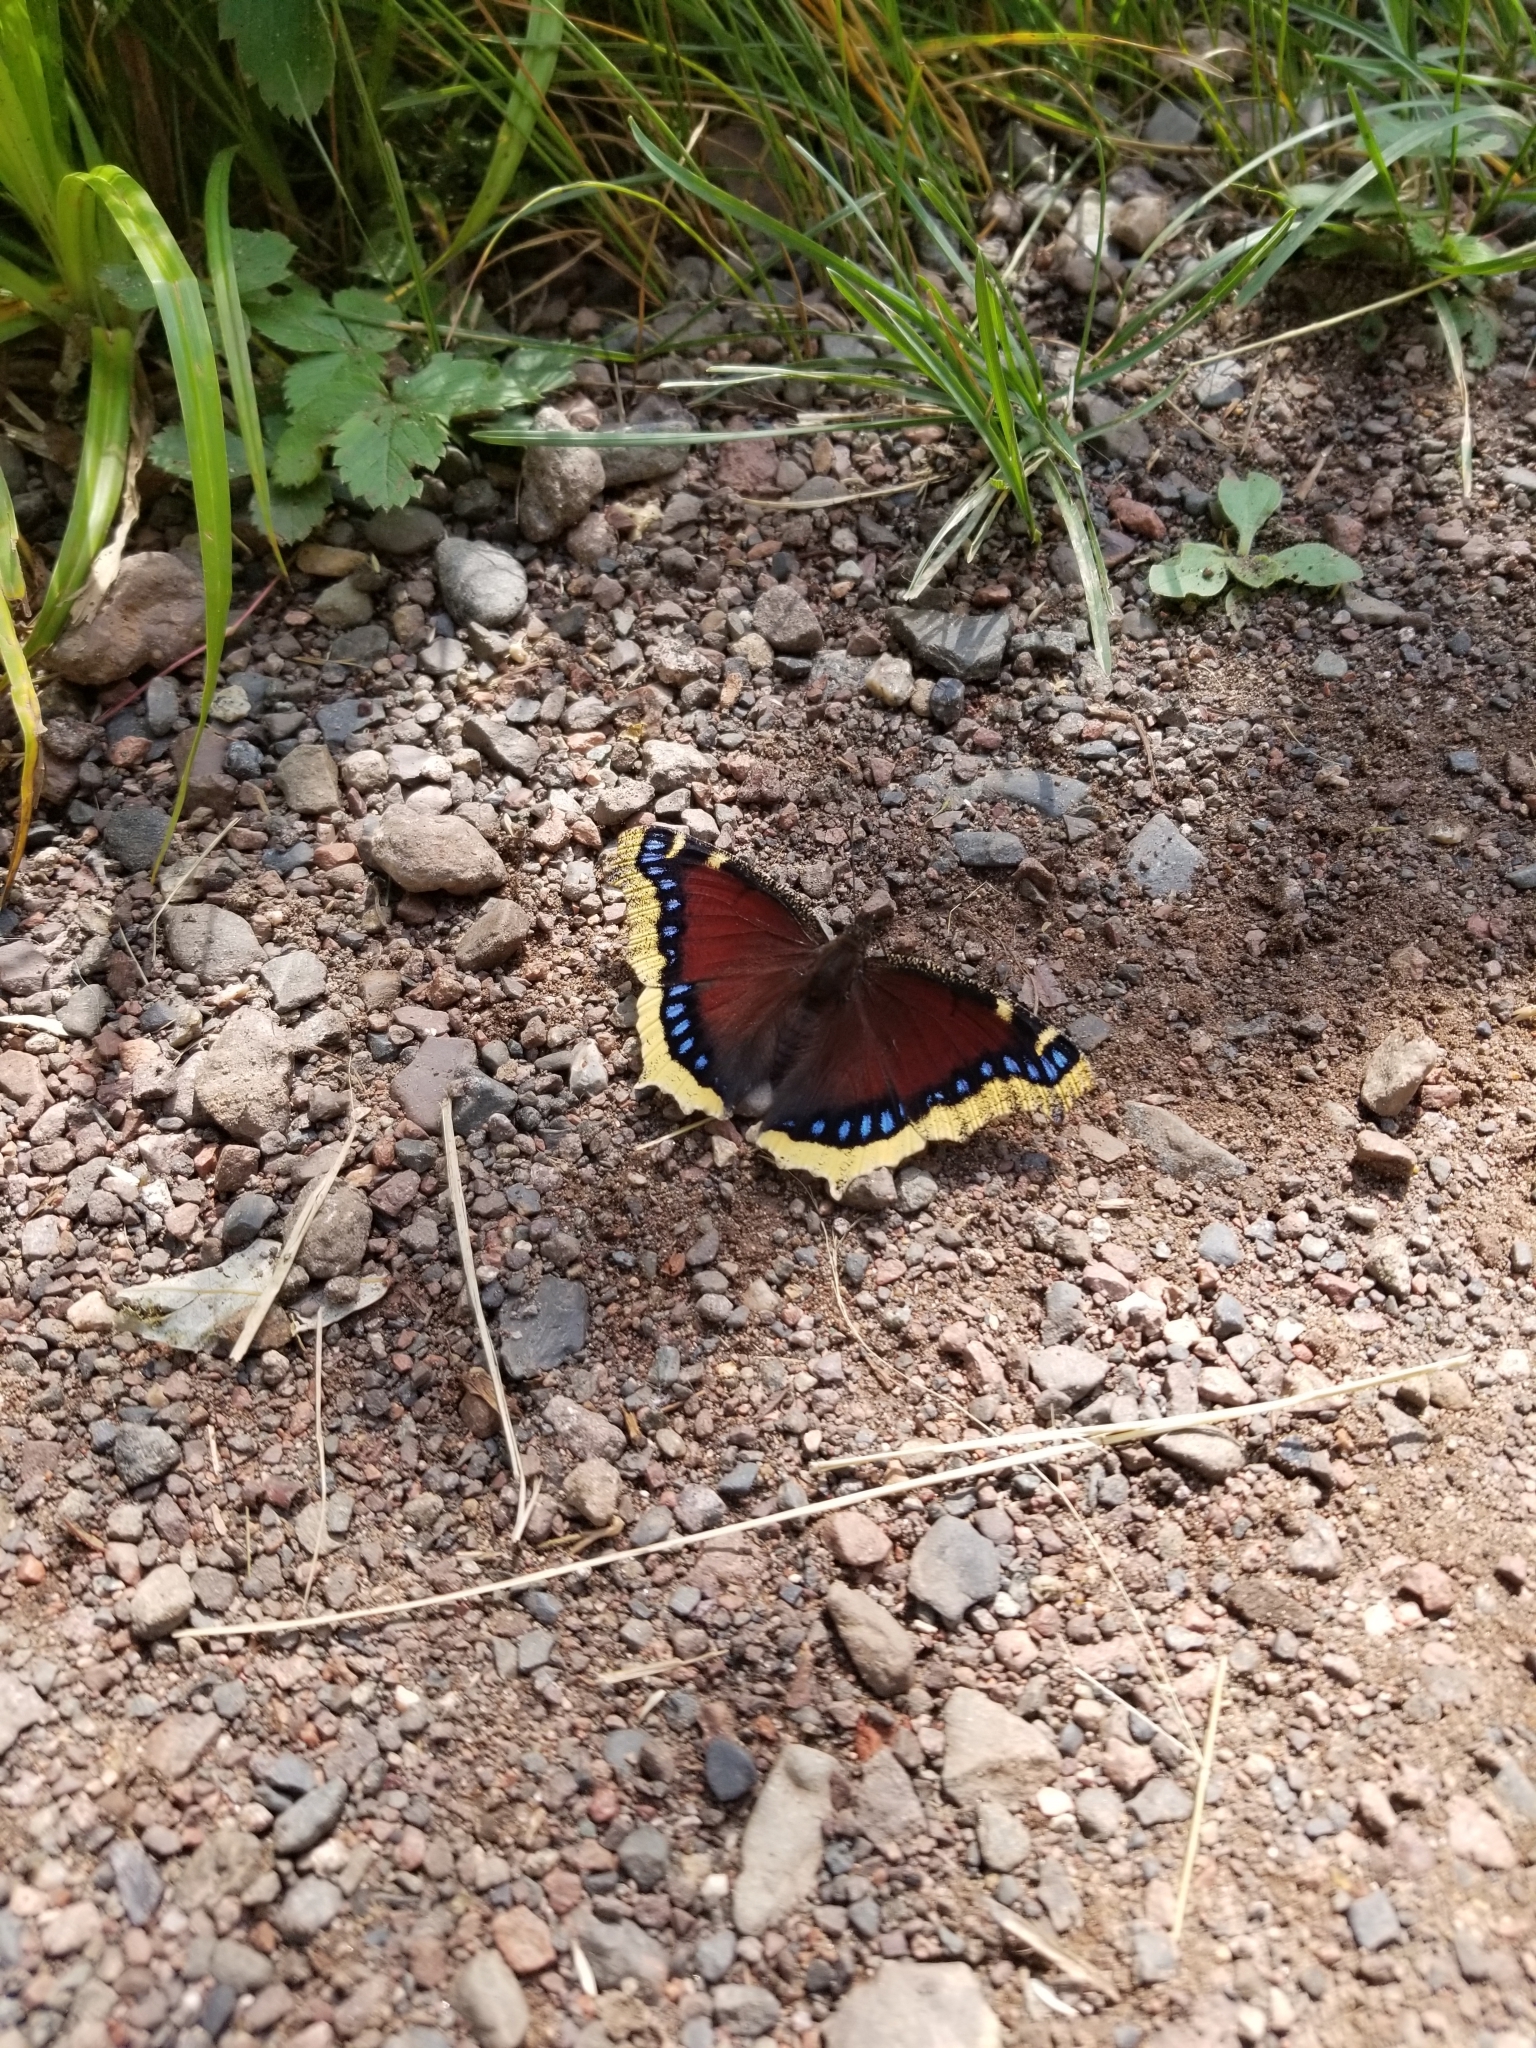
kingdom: Animalia
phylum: Arthropoda
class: Insecta
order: Lepidoptera
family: Nymphalidae
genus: Nymphalis
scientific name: Nymphalis antiopa
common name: Camberwell beauty
